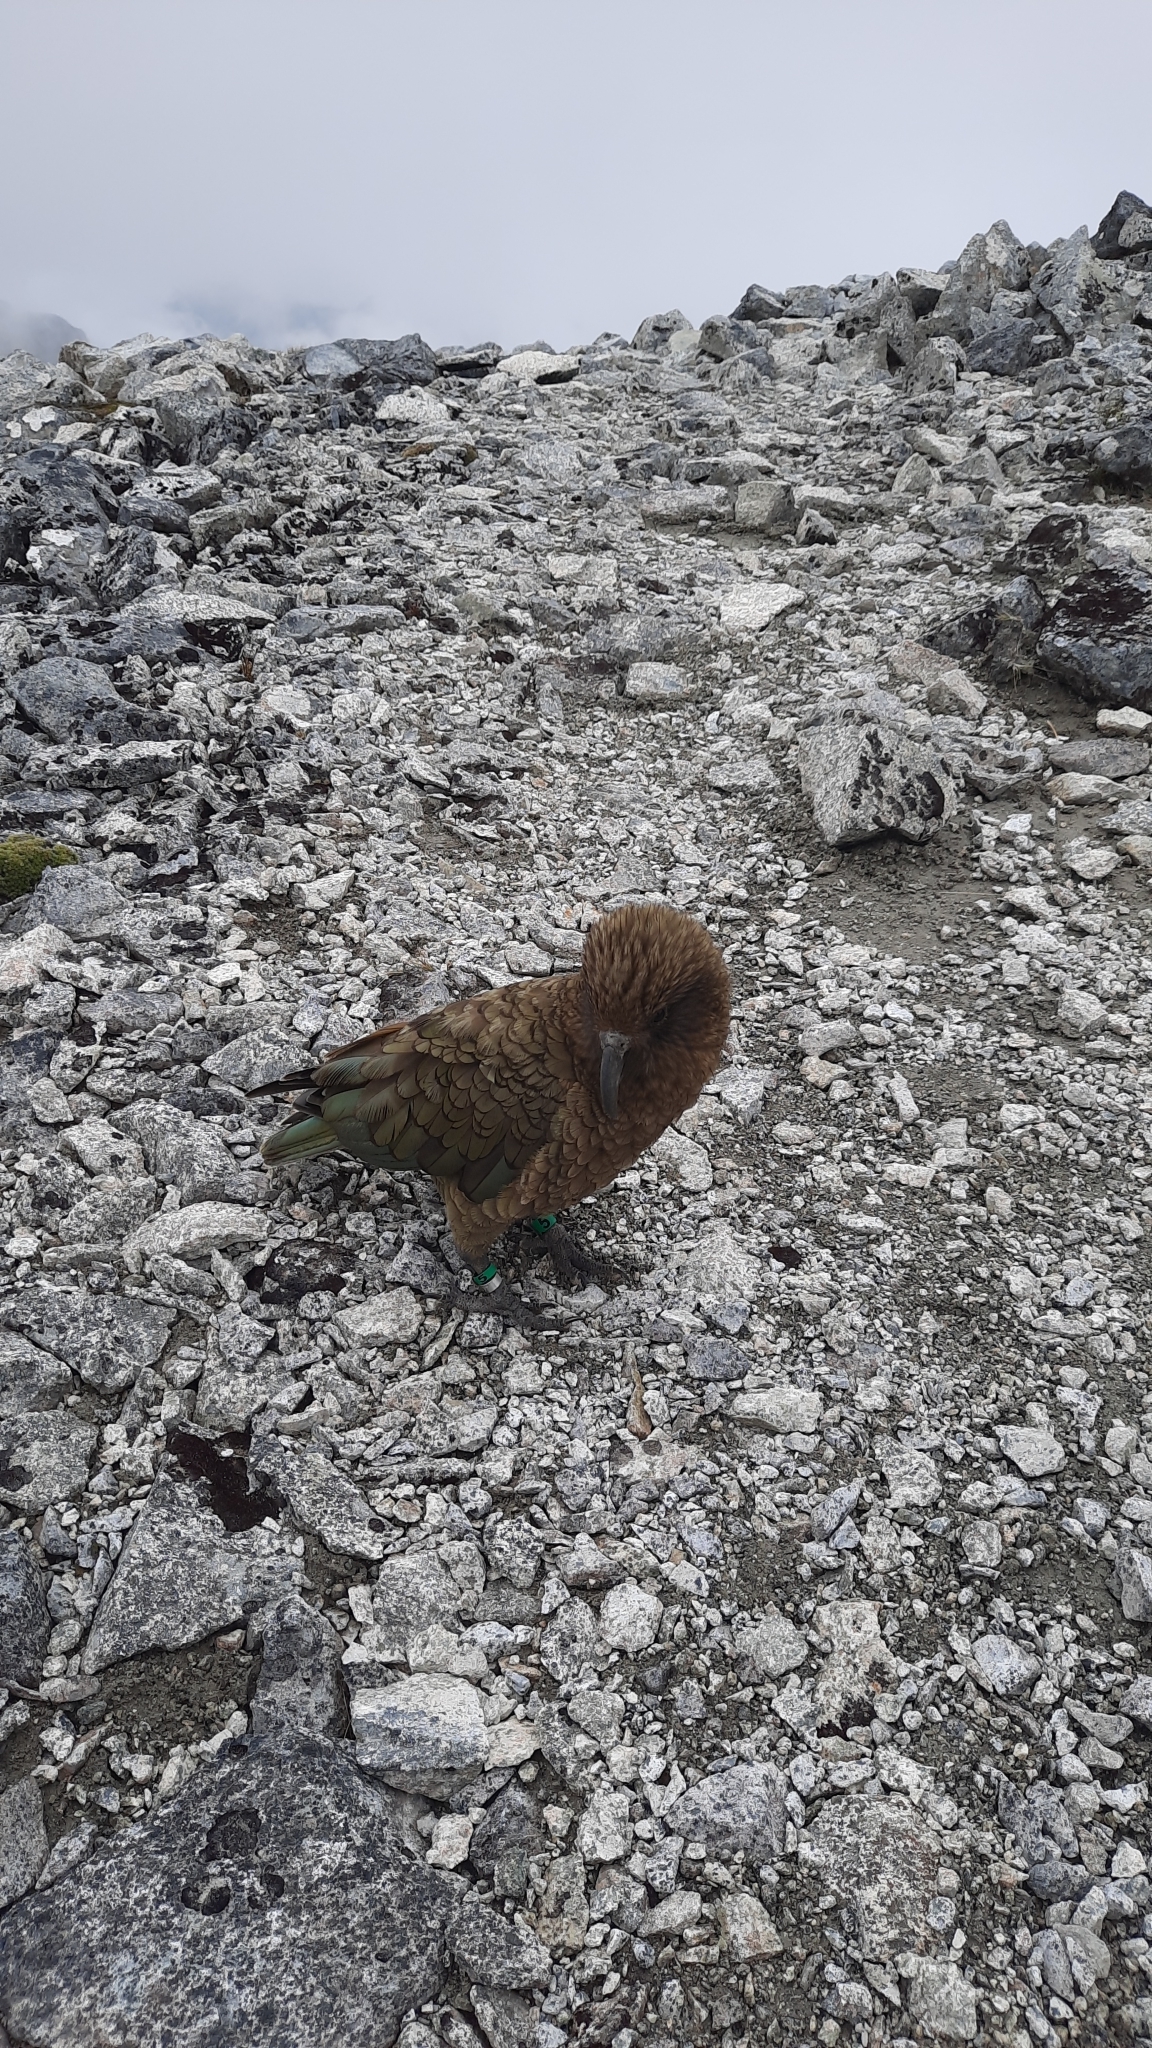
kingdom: Animalia
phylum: Chordata
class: Aves
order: Psittaciformes
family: Psittacidae
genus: Nestor
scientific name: Nestor notabilis
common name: Kea
